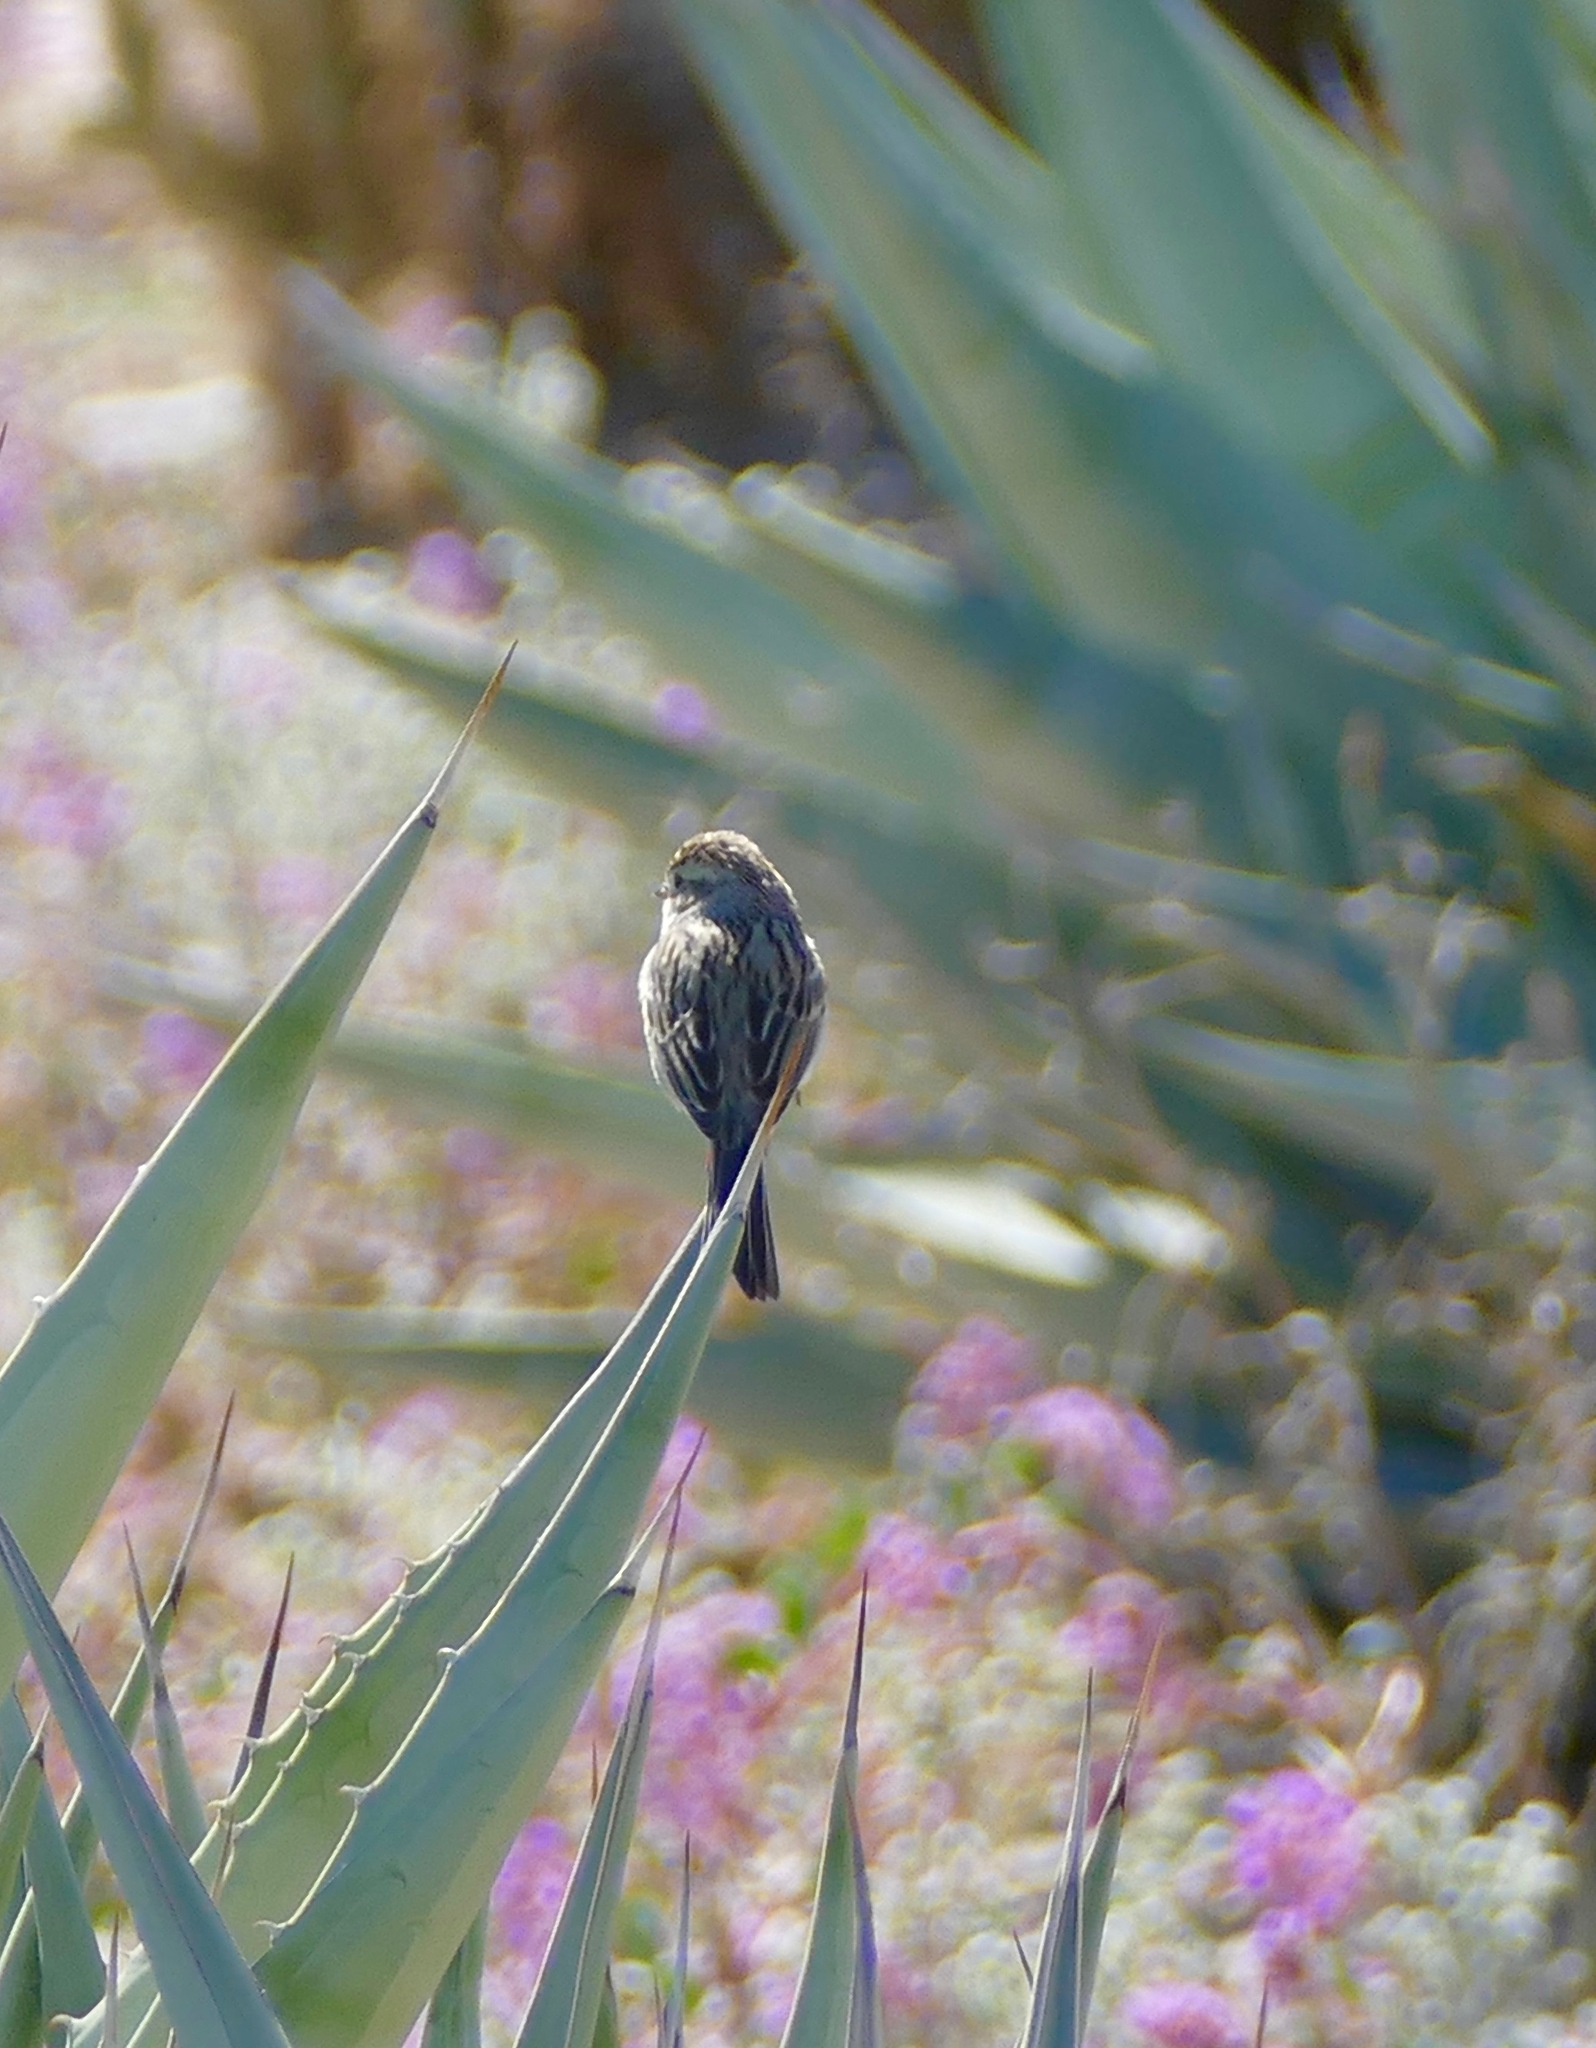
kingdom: Animalia
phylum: Chordata
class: Aves
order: Passeriformes
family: Passerellidae
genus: Spizella
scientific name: Spizella breweri
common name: Brewer's sparrow
